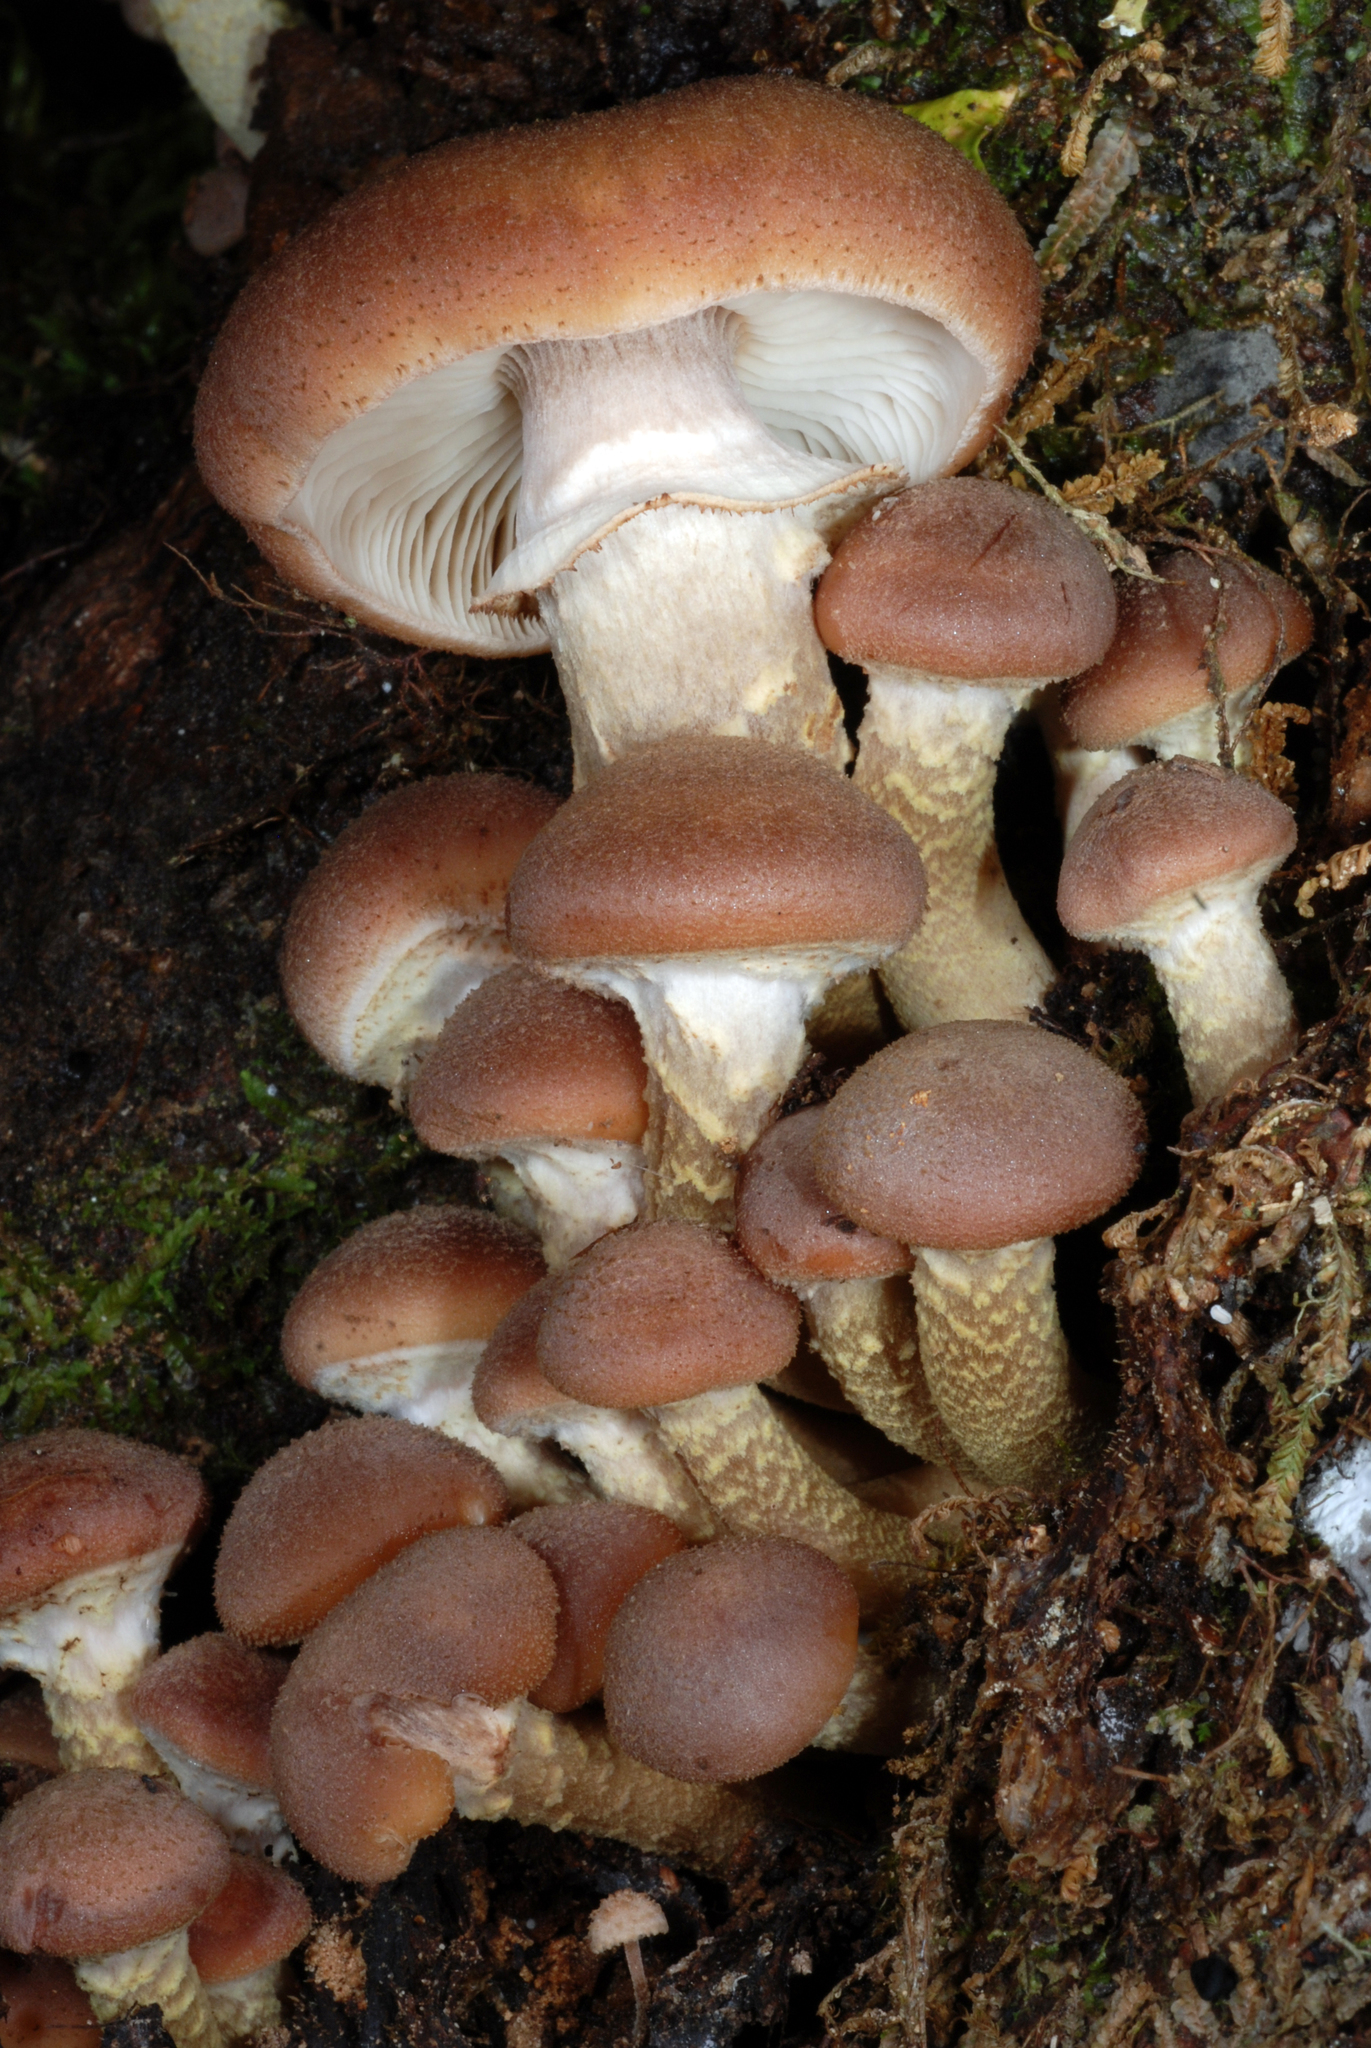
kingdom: Fungi
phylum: Basidiomycota
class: Agaricomycetes
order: Agaricales
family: Physalacriaceae
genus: Armillaria
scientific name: Armillaria aotearoa
